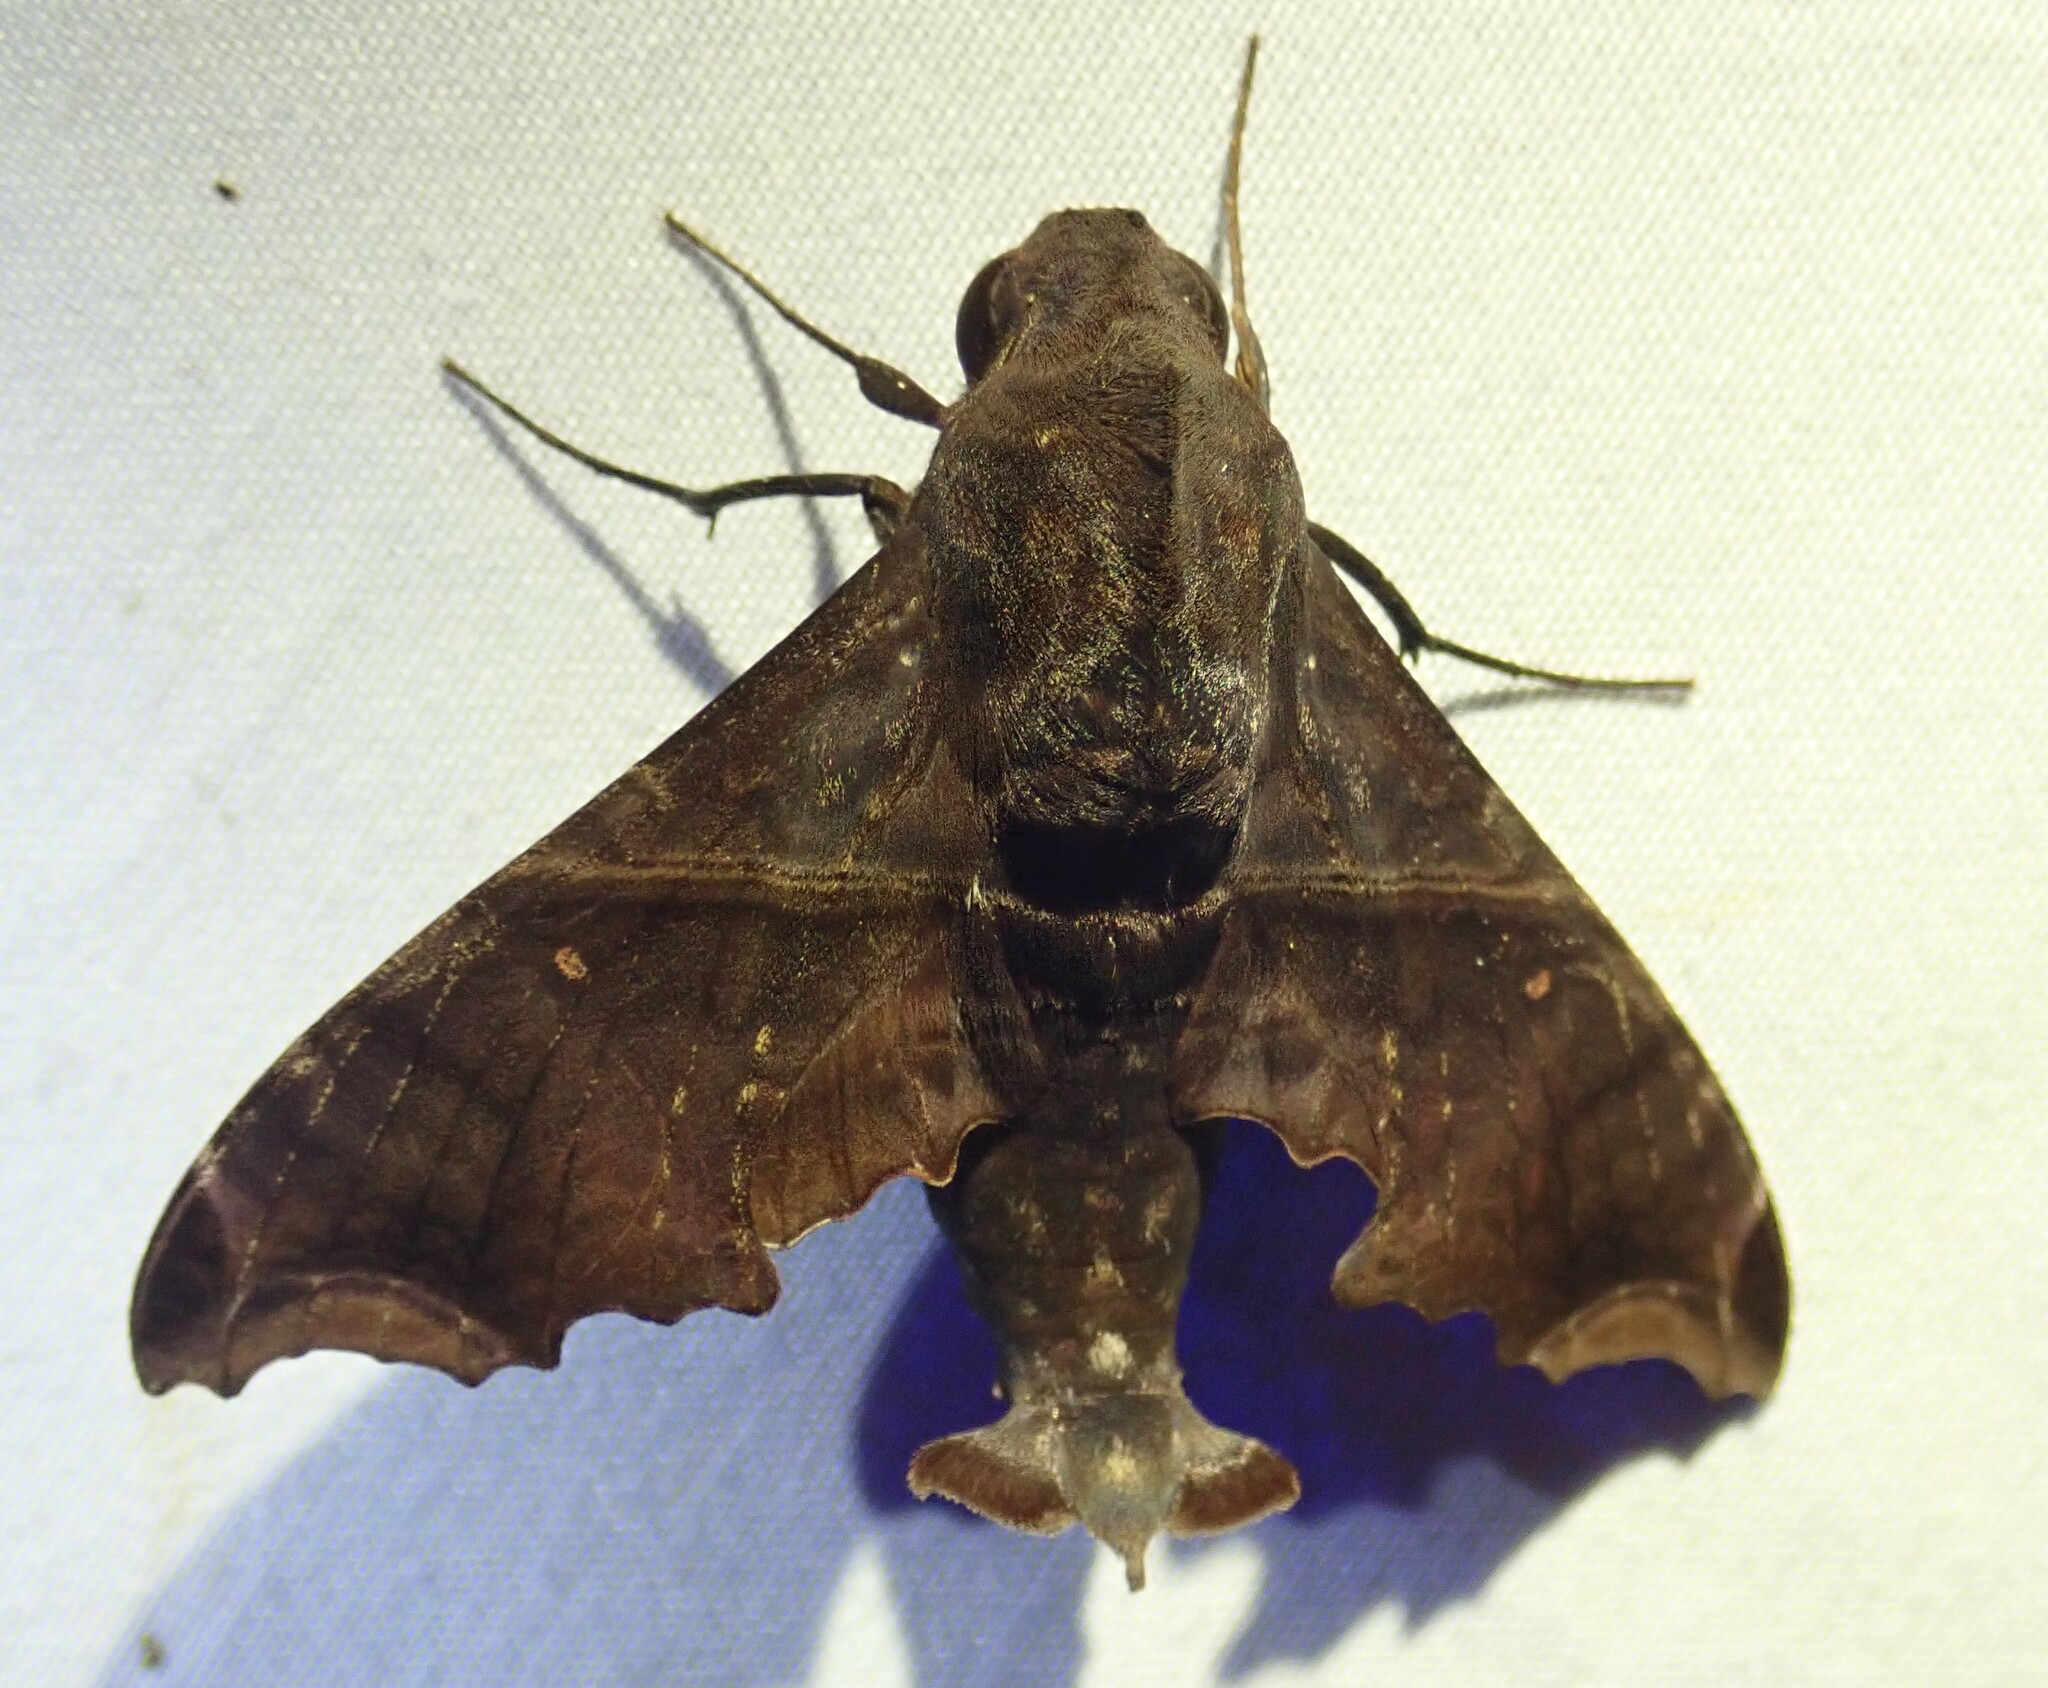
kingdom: Animalia
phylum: Arthropoda
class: Insecta
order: Lepidoptera
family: Sphingidae
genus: Enyo
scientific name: Enyo ocypete
